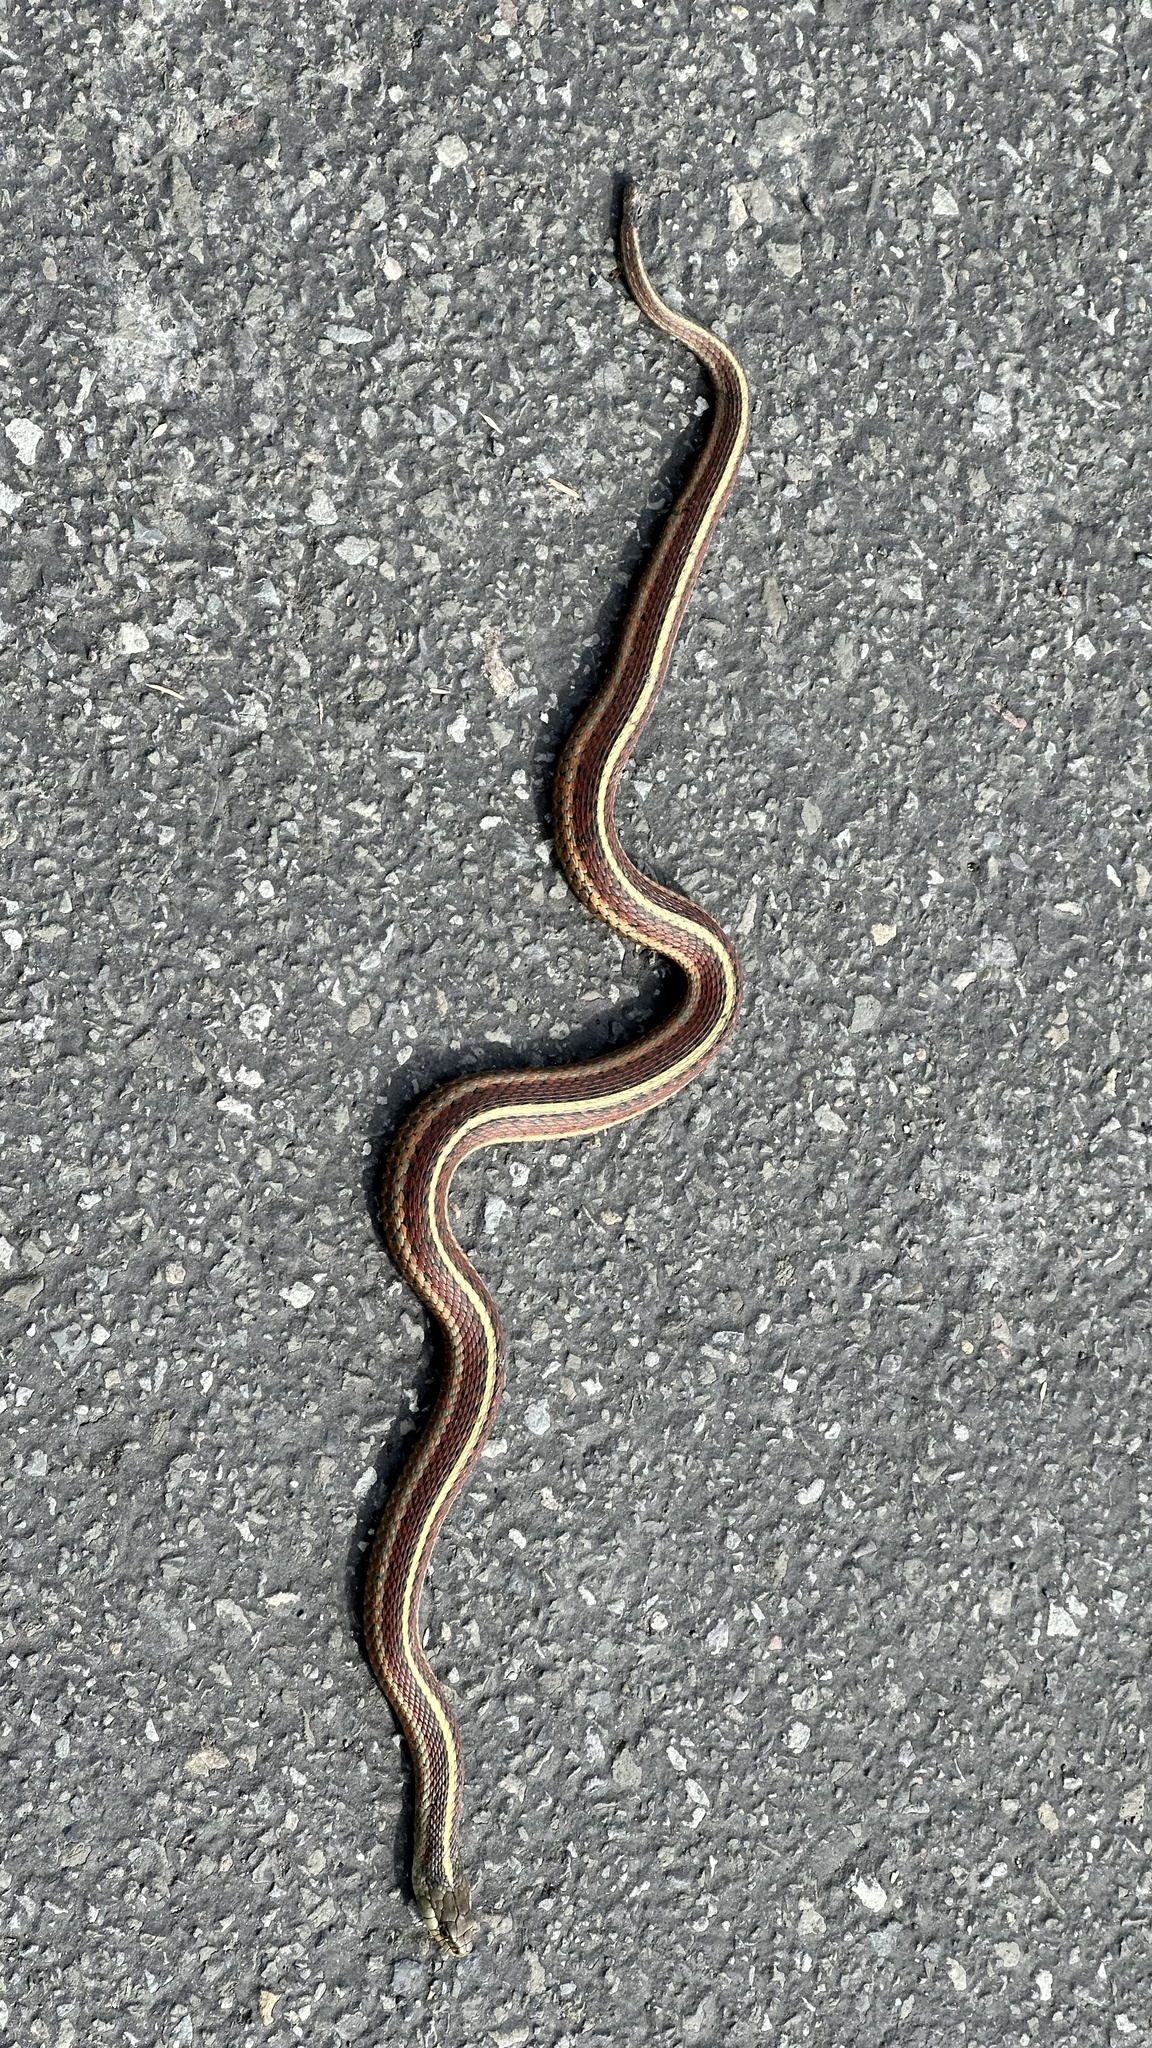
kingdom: Animalia
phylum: Chordata
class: Squamata
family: Colubridae
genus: Thamnophis
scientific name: Thamnophis elegans
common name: Western terrestrial garter snake
